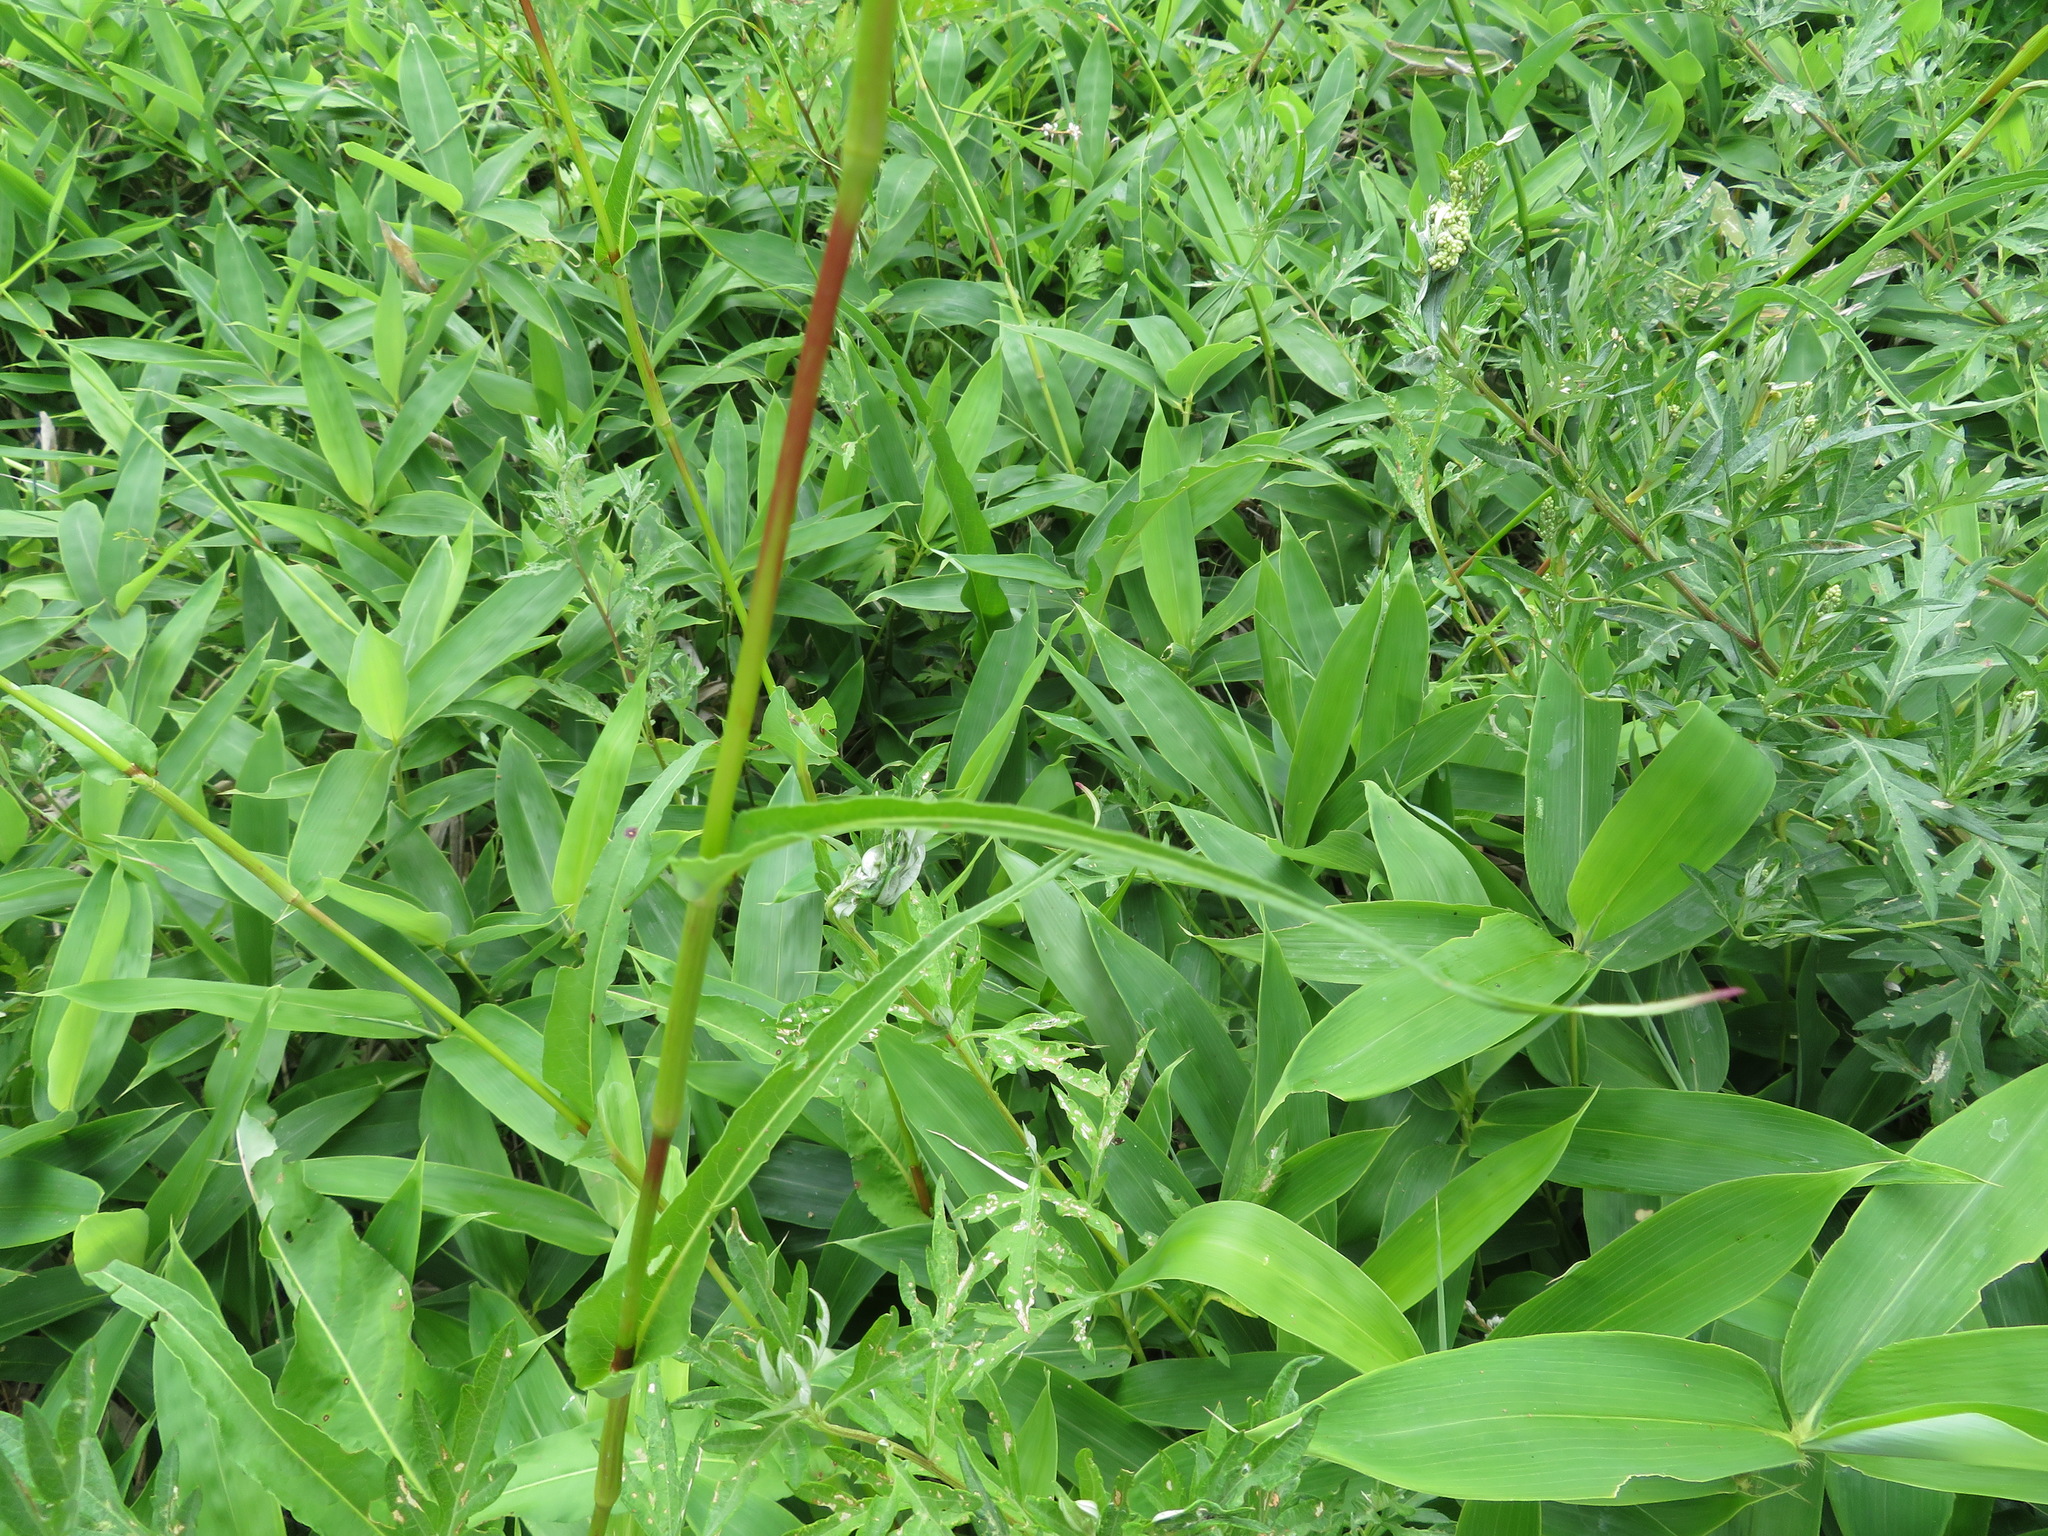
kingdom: Plantae
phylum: Tracheophyta
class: Magnoliopsida
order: Caryophyllales
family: Polygonaceae
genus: Bistorta
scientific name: Bistorta officinalis
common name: Common bistort
